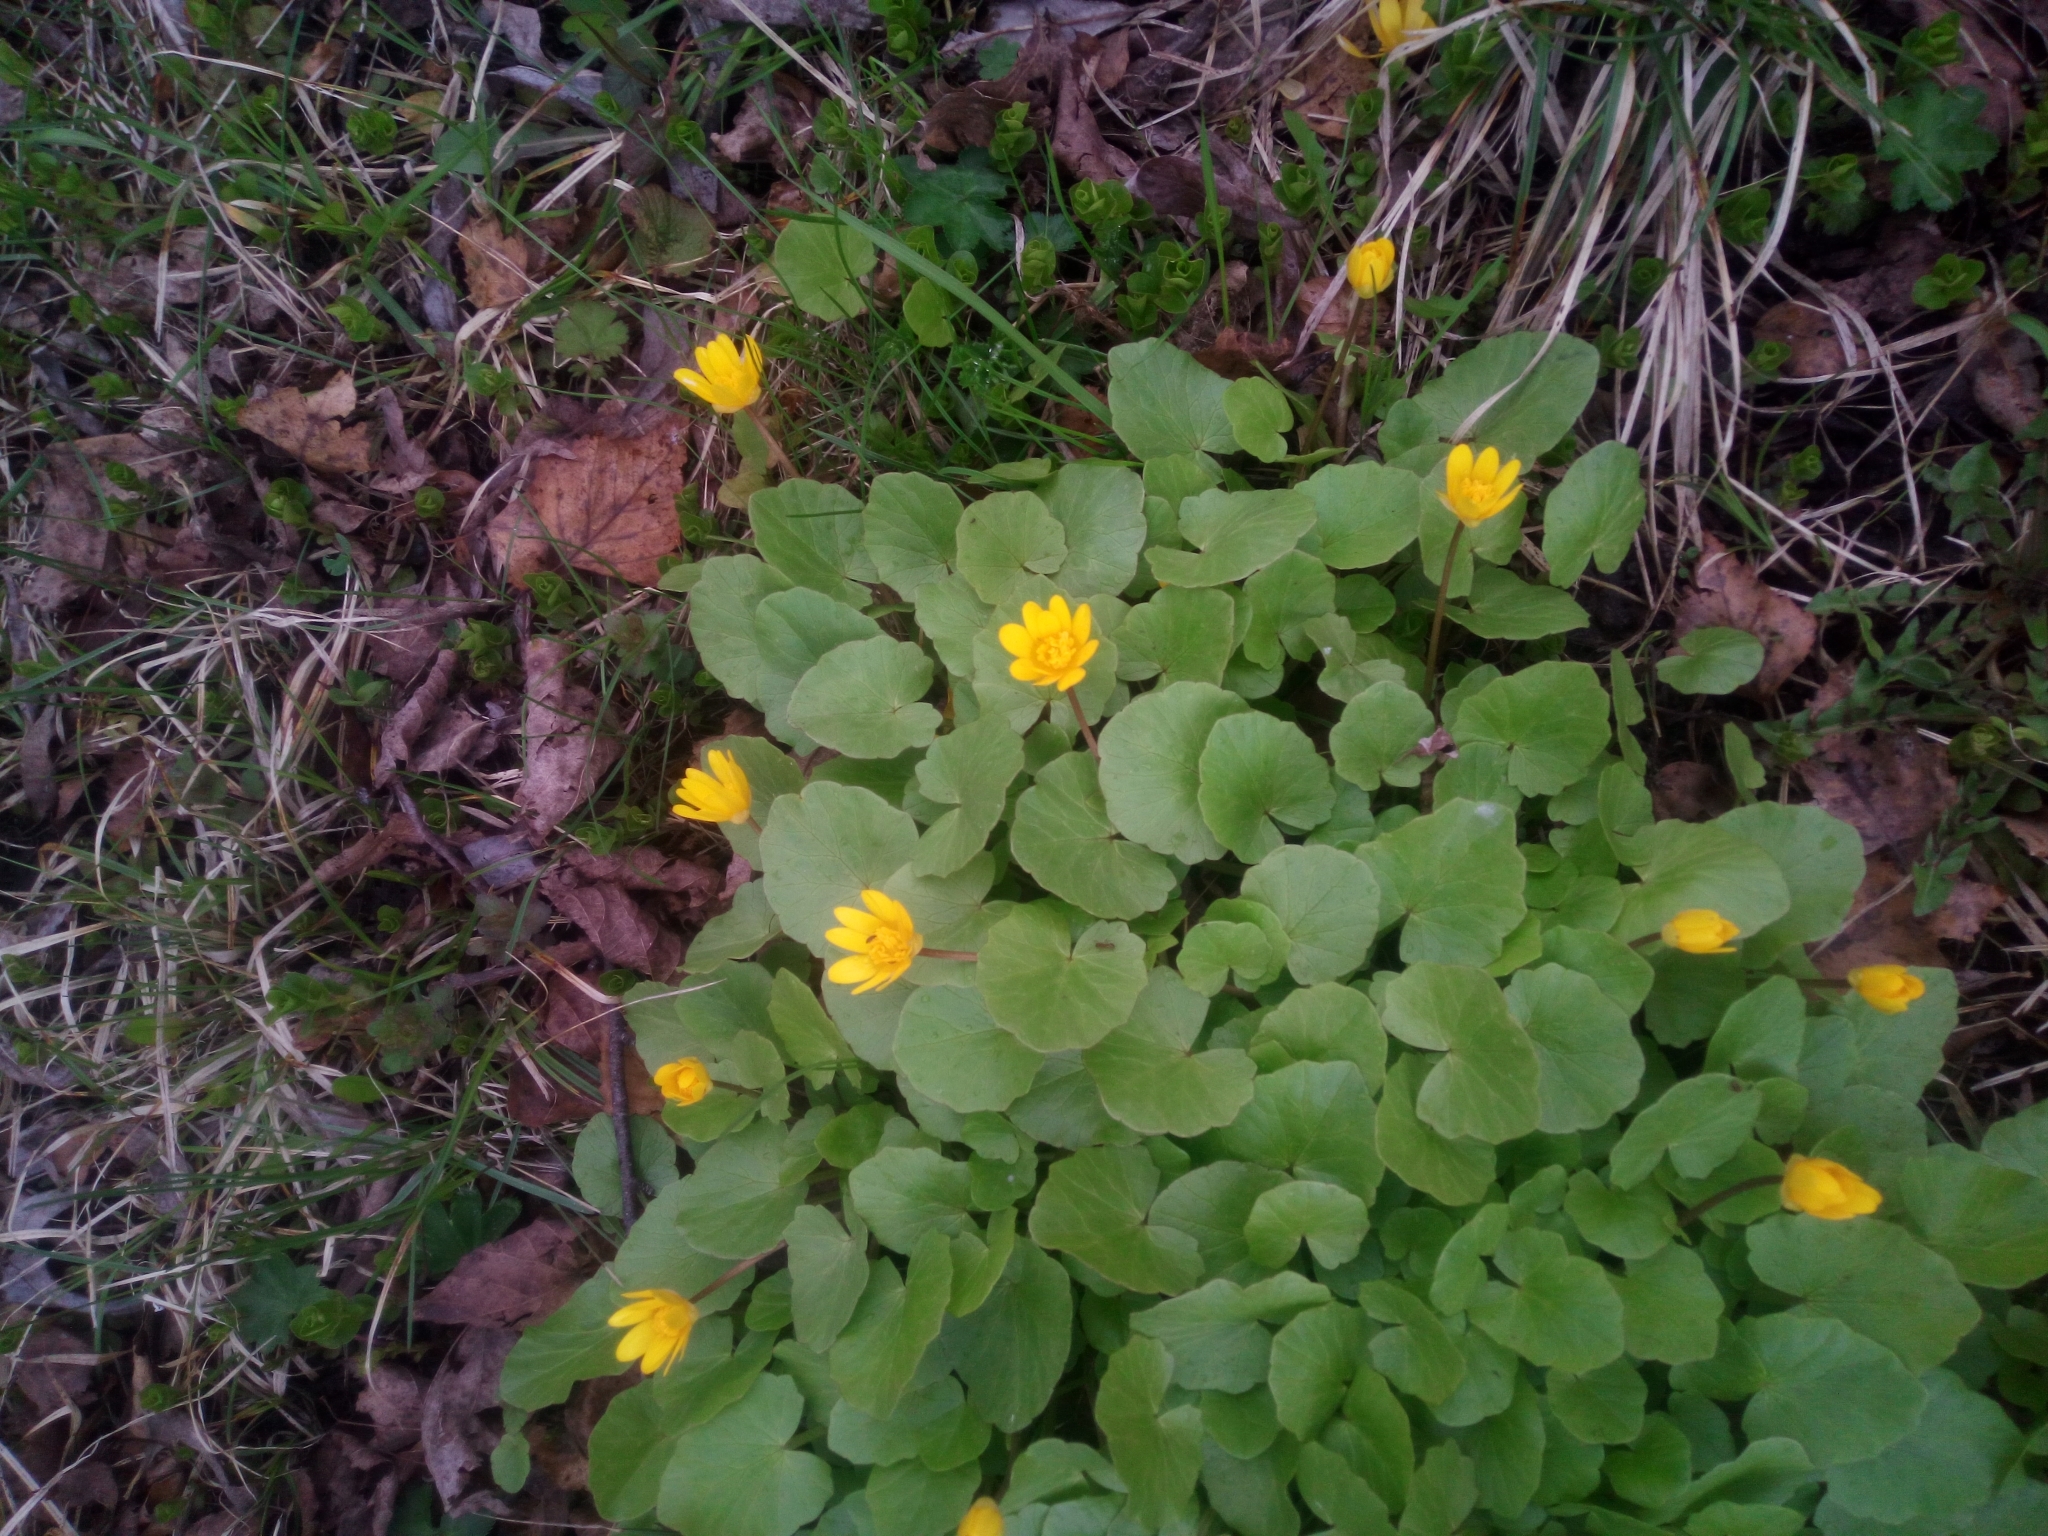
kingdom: Plantae
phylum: Tracheophyta
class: Magnoliopsida
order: Ranunculales
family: Ranunculaceae
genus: Ficaria
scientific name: Ficaria verna
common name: Lesser celandine
